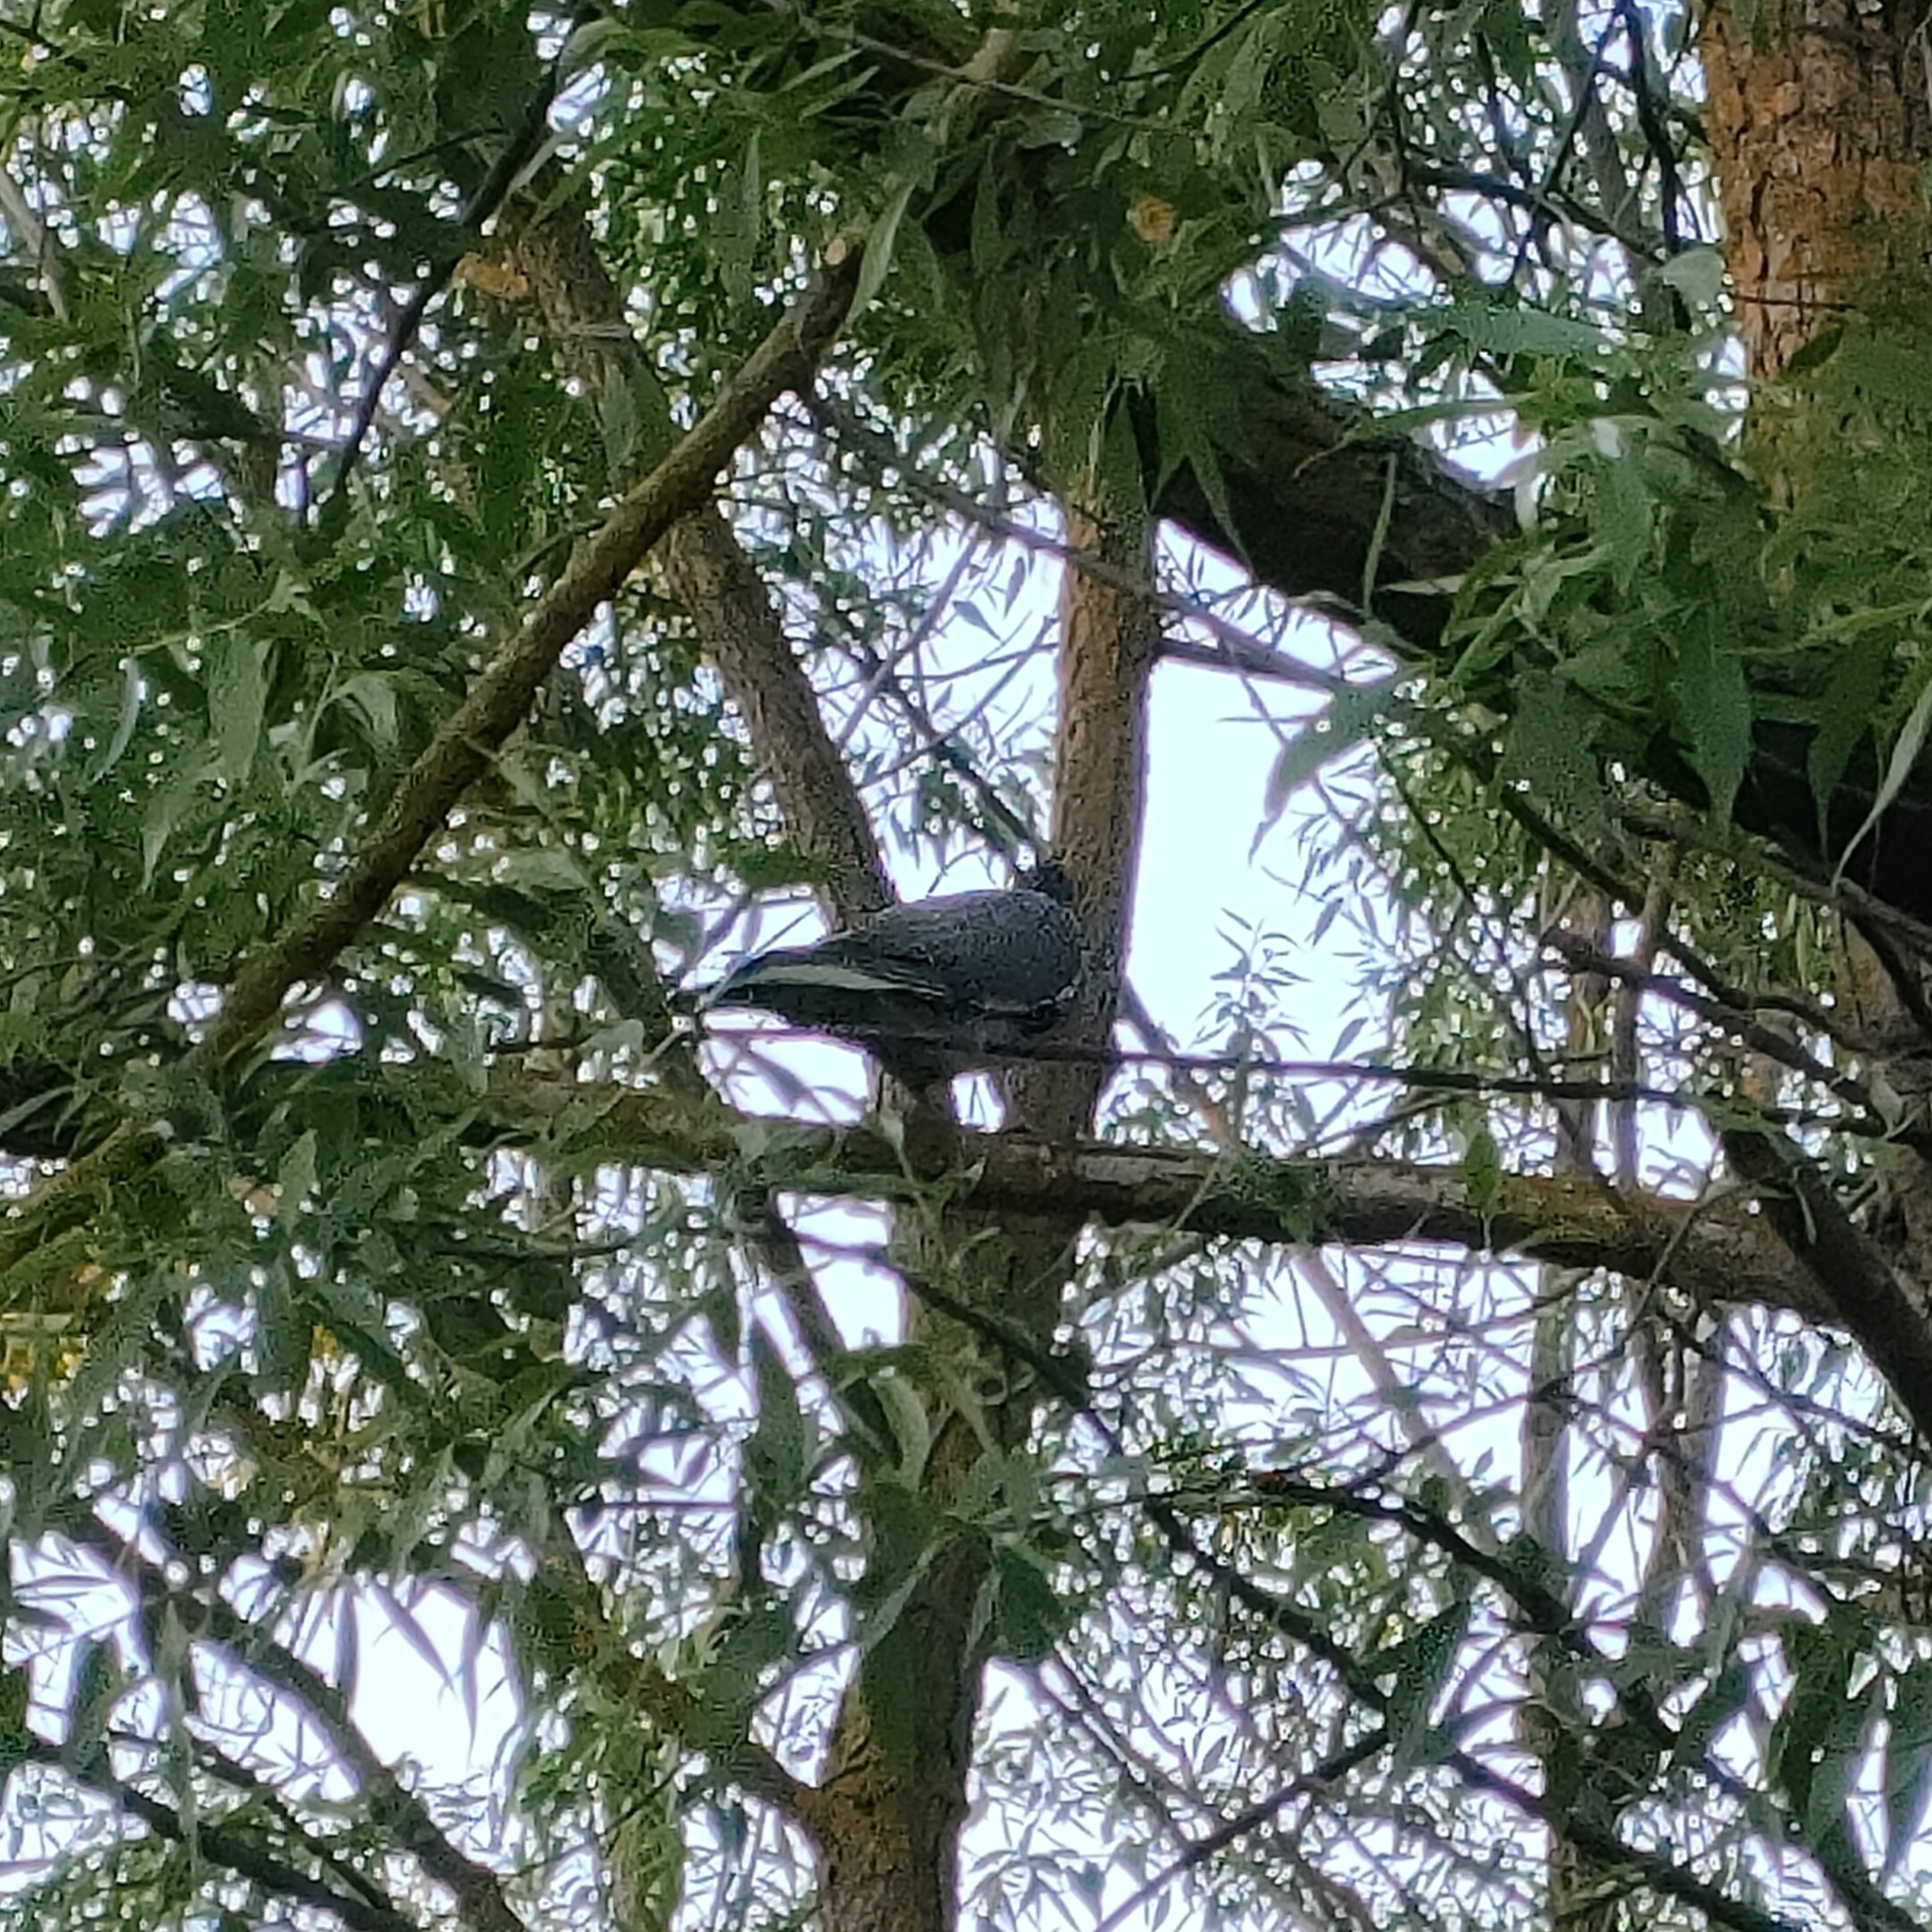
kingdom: Animalia
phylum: Chordata
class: Aves
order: Columbiformes
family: Columbidae
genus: Columba
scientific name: Columba palumbus
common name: Common wood pigeon
